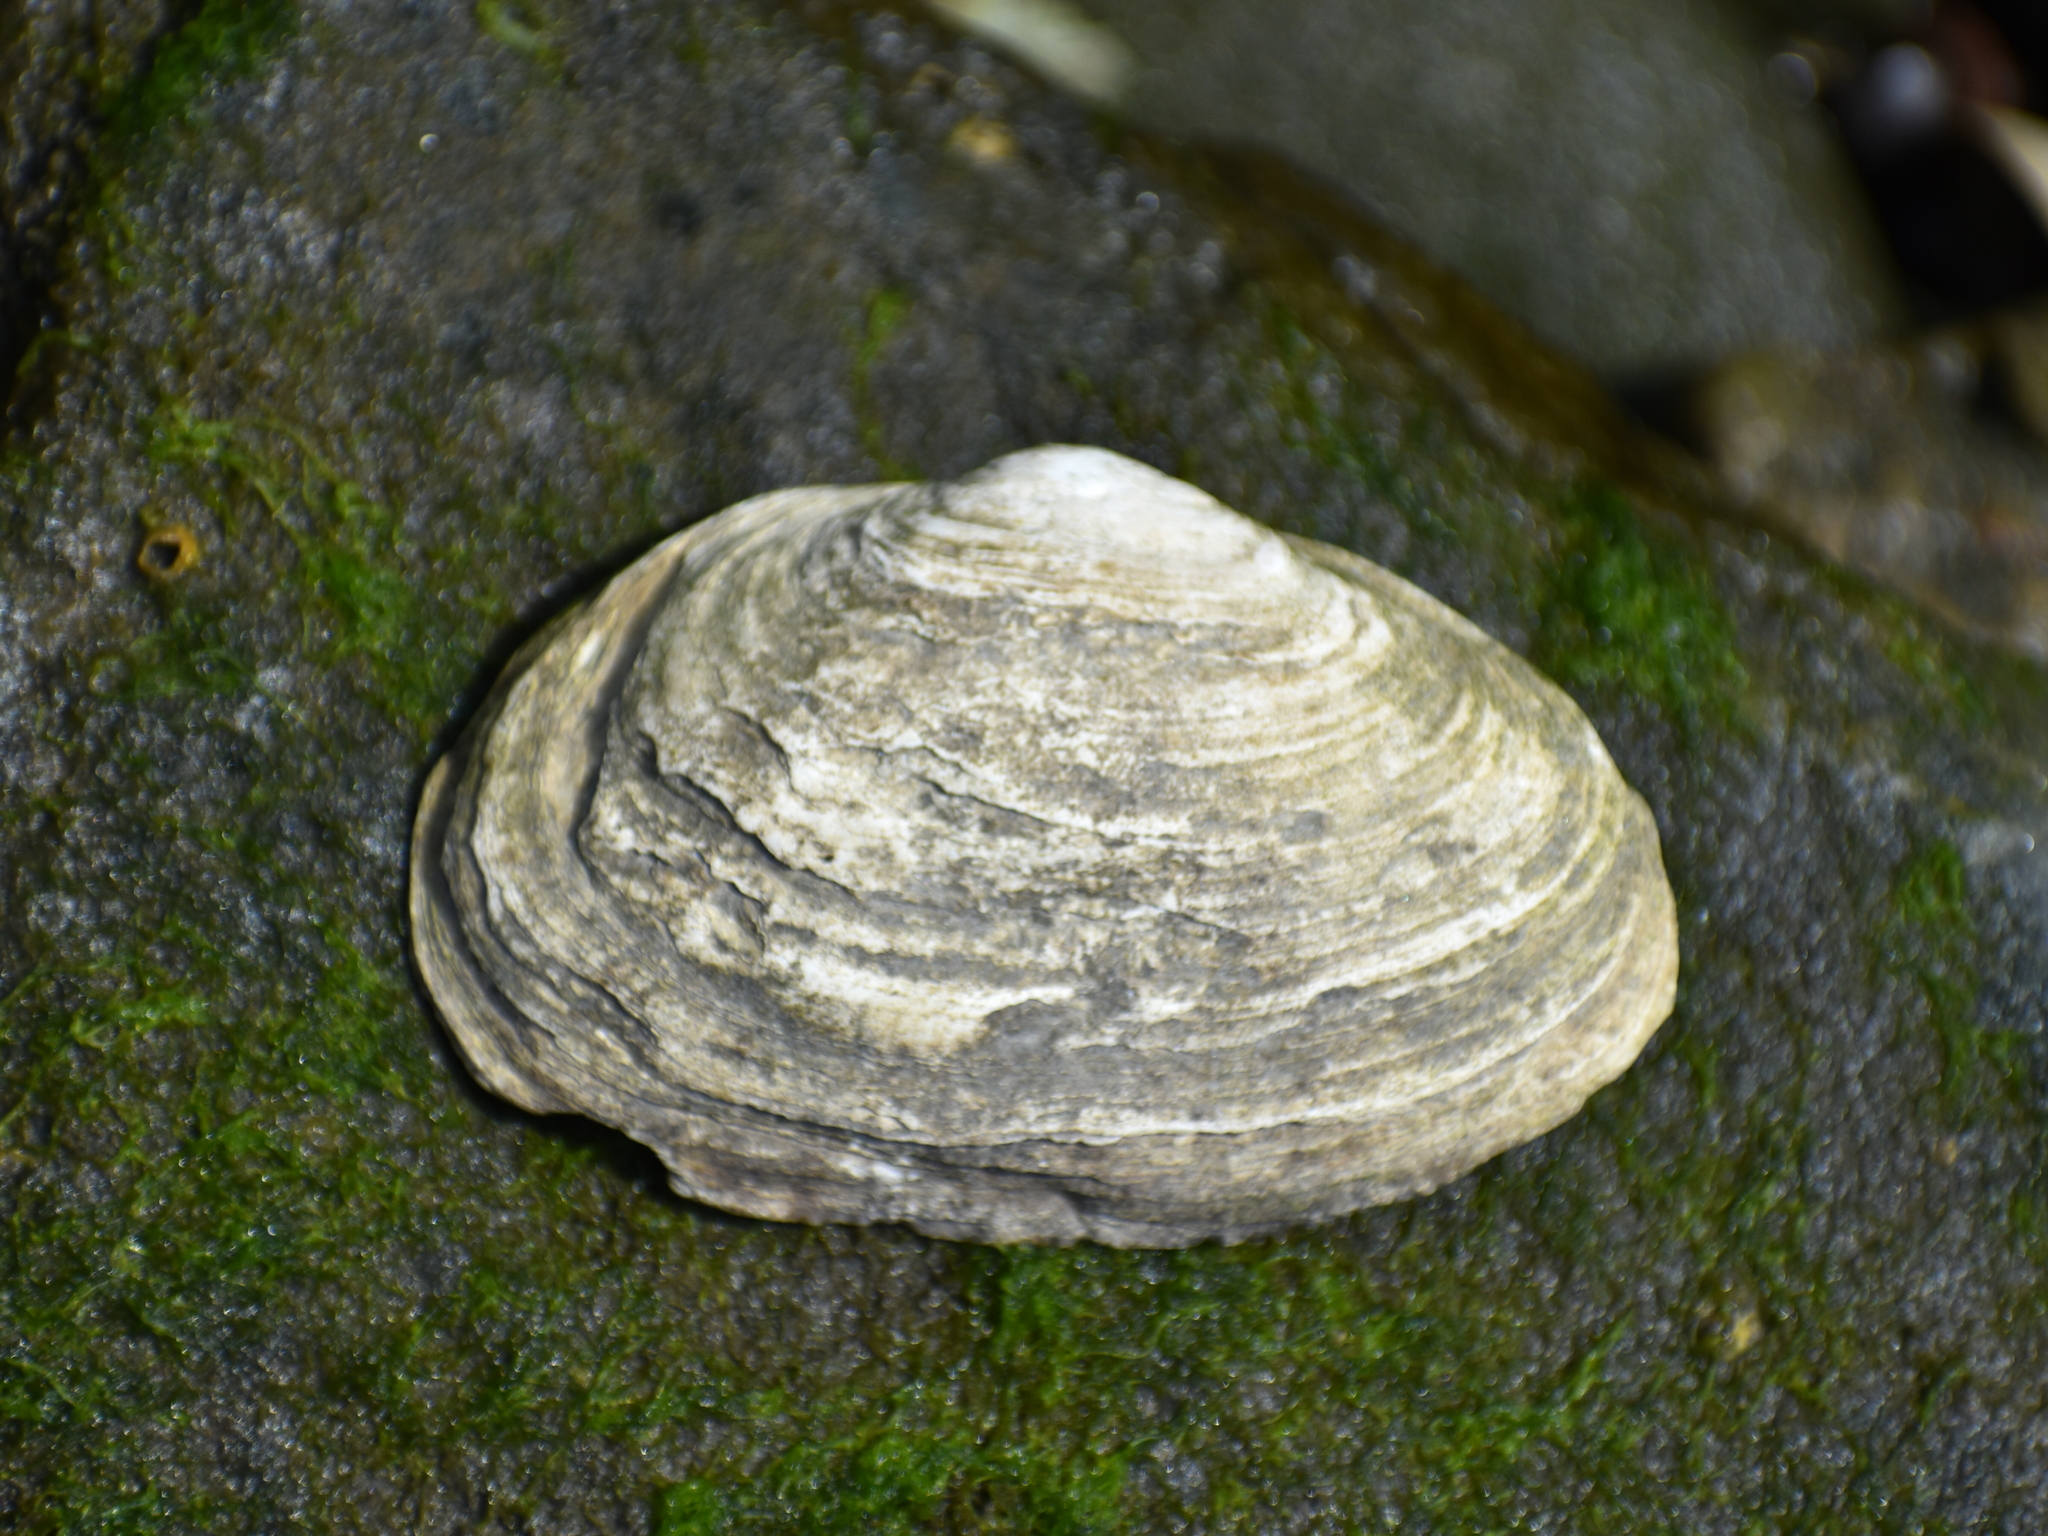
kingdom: Animalia
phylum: Mollusca
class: Bivalvia
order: Myida
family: Myidae
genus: Mya
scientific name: Mya arenaria
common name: Soft-shelled clam
